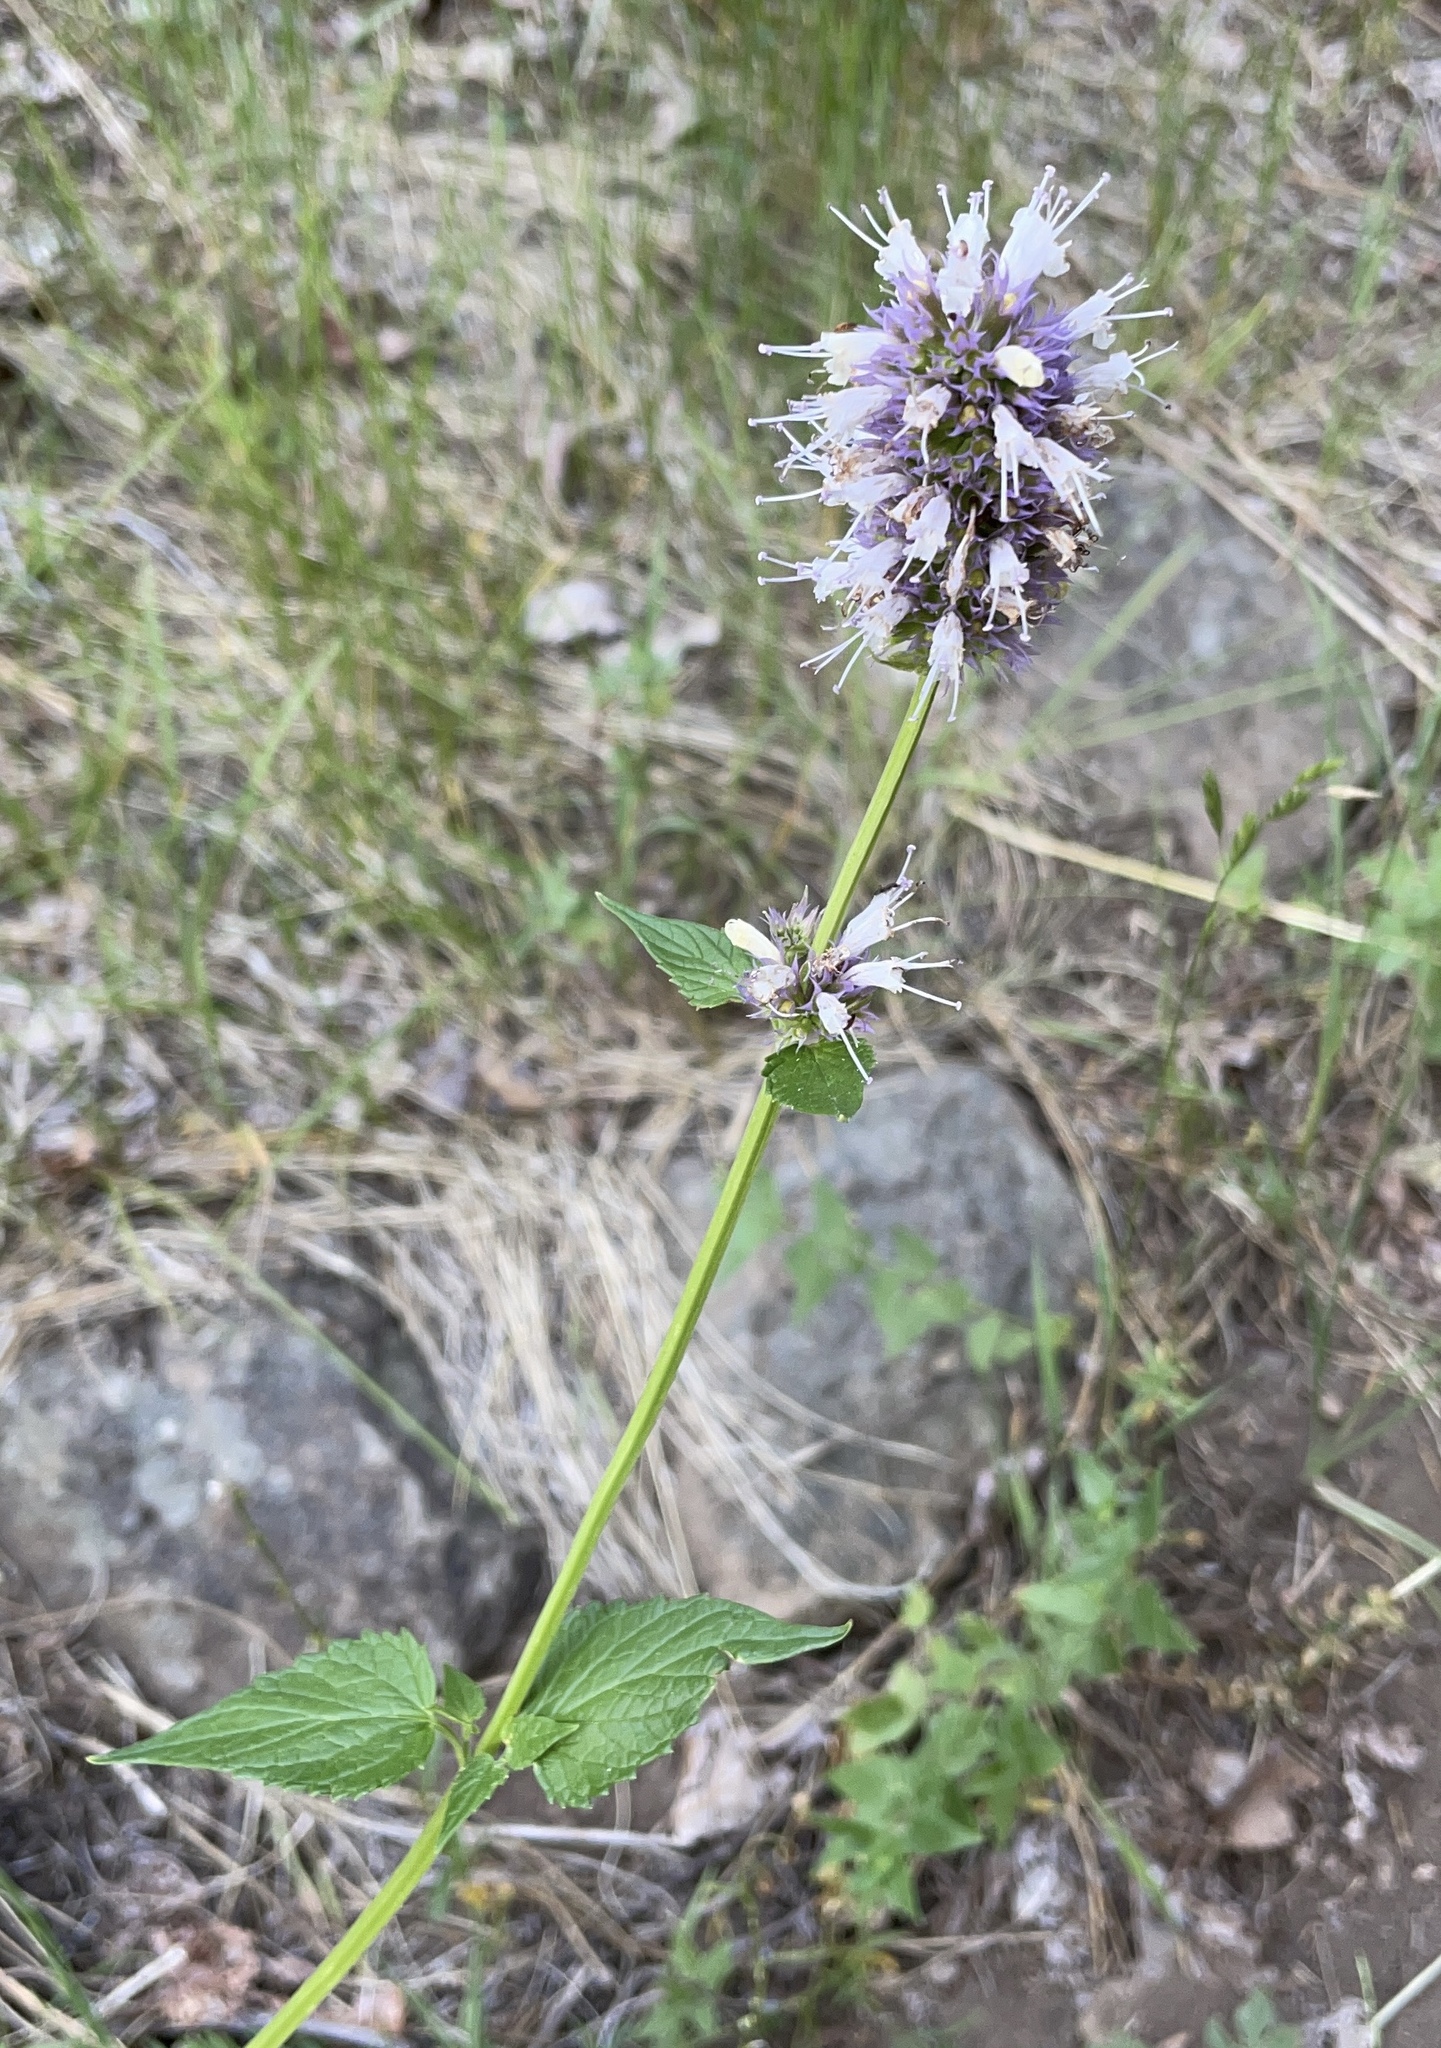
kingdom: Plantae
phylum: Tracheophyta
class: Magnoliopsida
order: Lamiales
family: Lamiaceae
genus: Agastache
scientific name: Agastache urticifolia
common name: Horsemint giant hyssop
